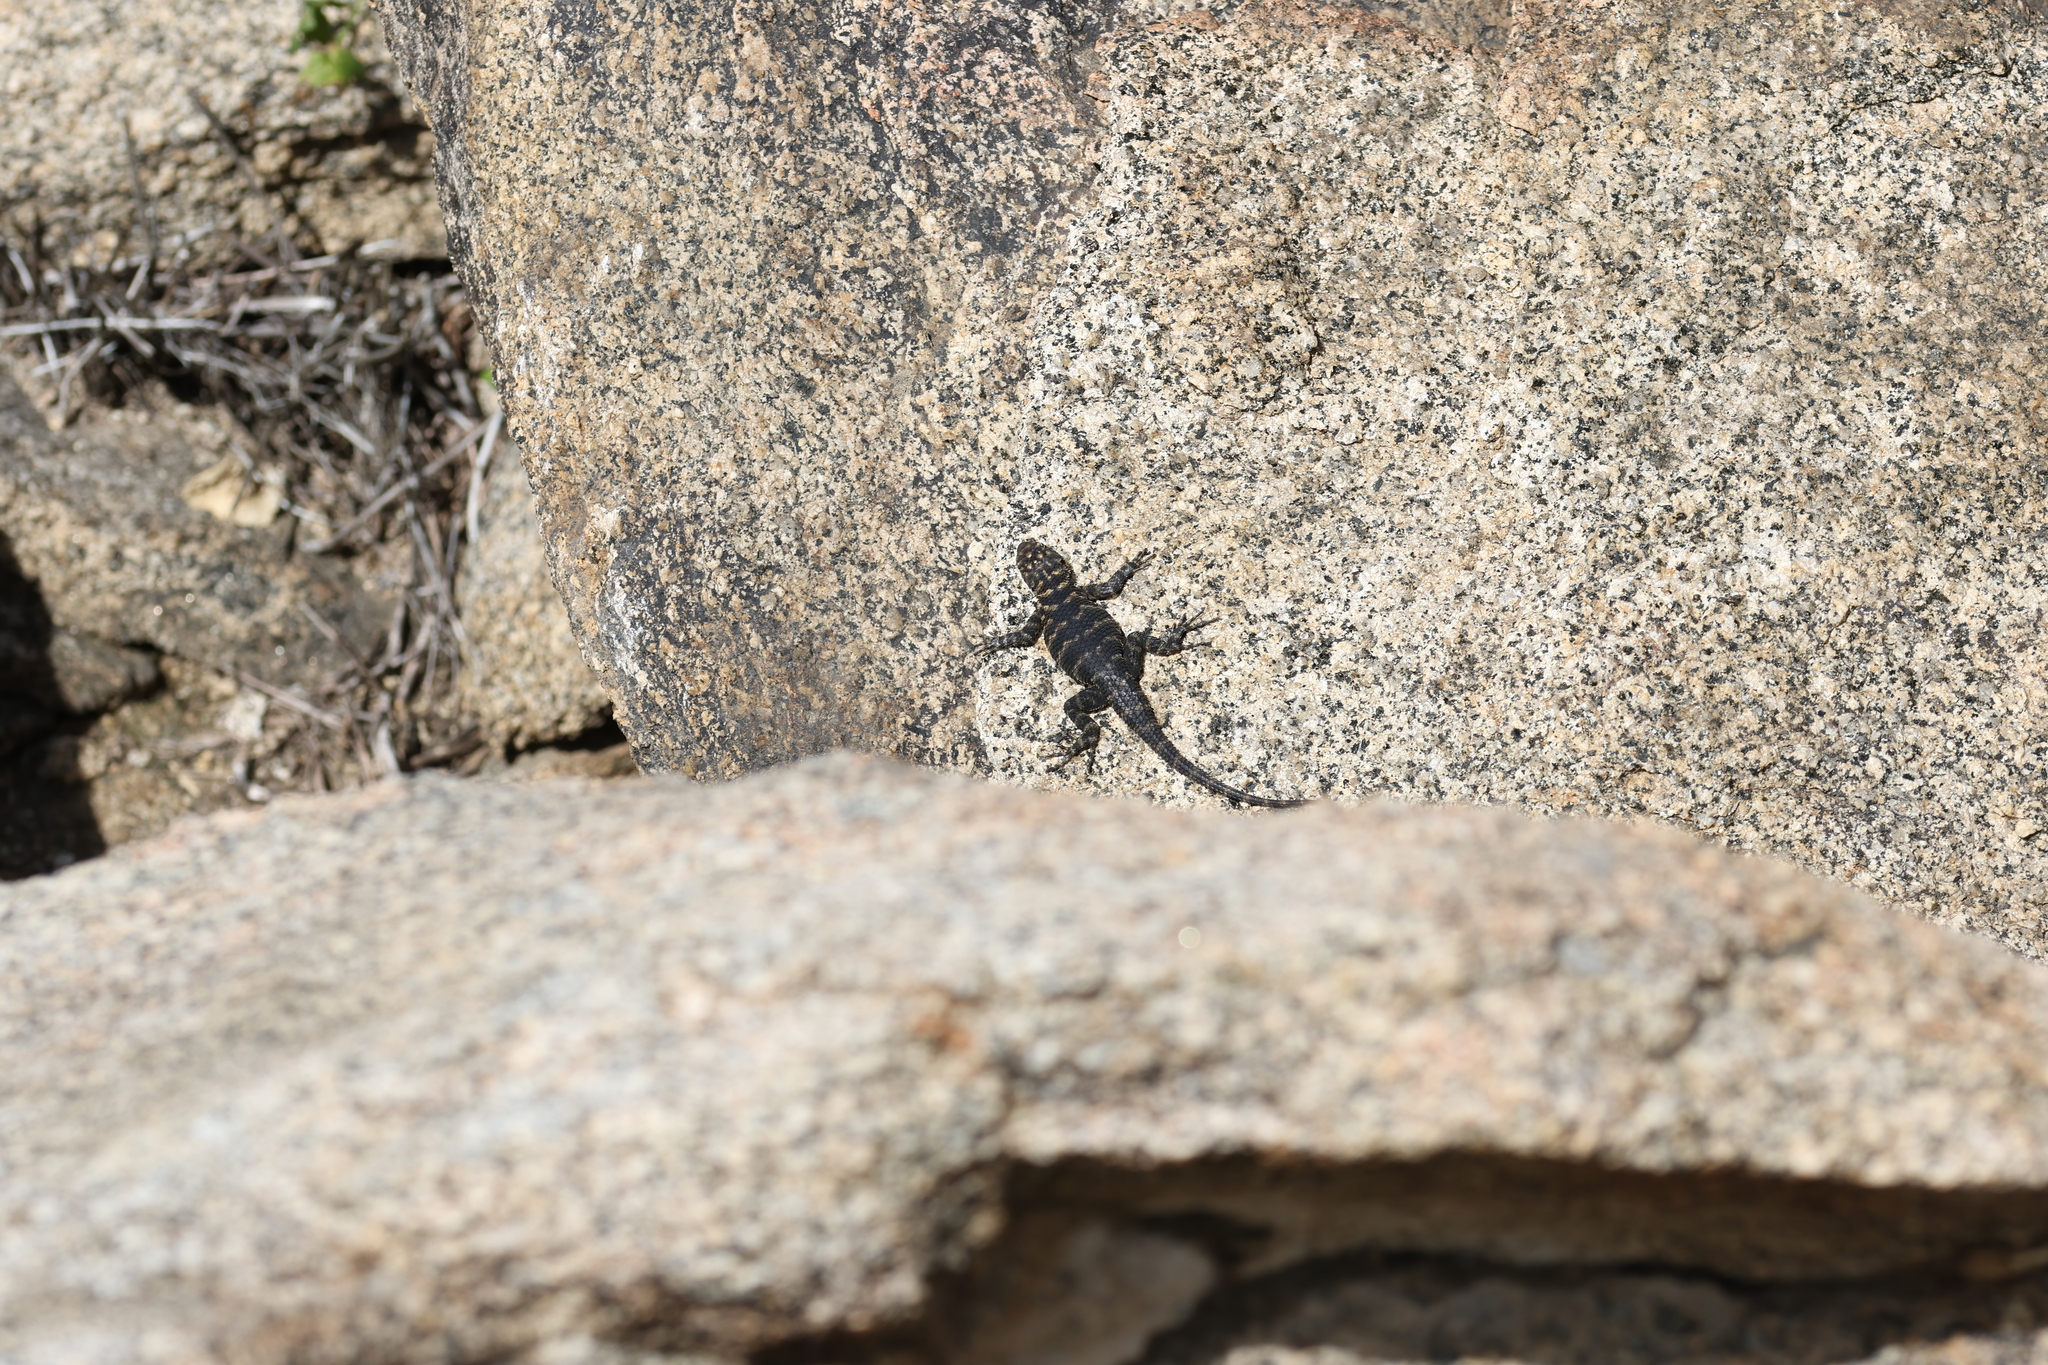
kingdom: Animalia
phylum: Chordata
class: Squamata
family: Phrynosomatidae
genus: Sceloporus
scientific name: Sceloporus orcutti
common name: Granite spiny lizard
